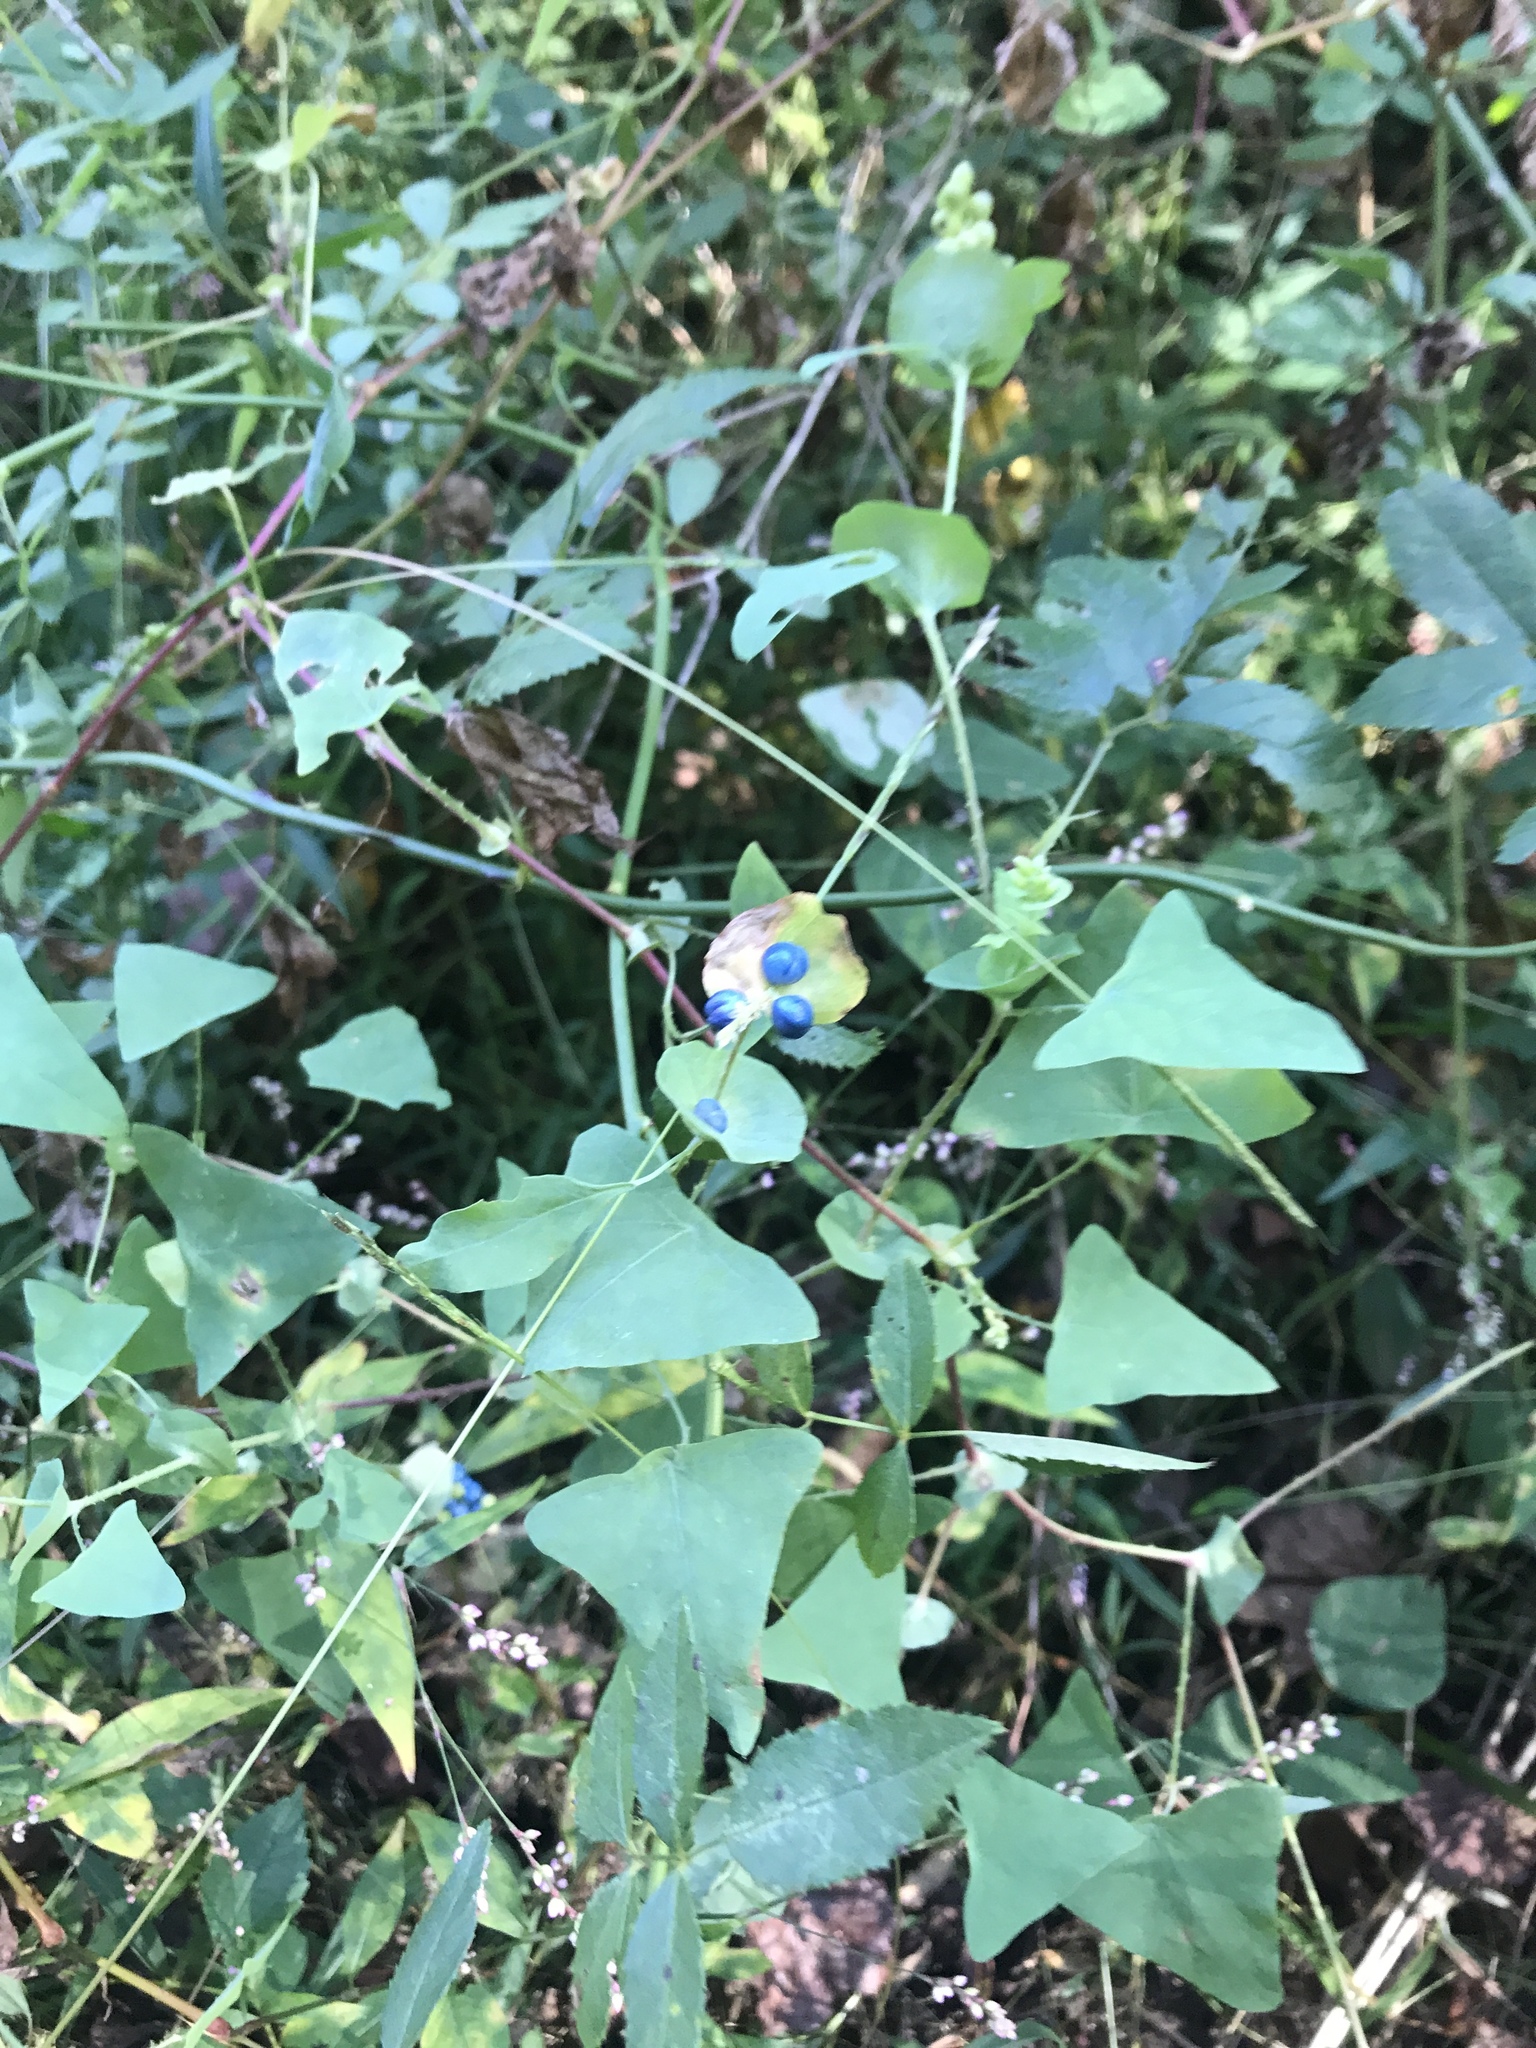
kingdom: Plantae
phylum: Tracheophyta
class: Magnoliopsida
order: Caryophyllales
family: Polygonaceae
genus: Persicaria
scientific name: Persicaria perfoliata
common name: Asiatic tearthumb
